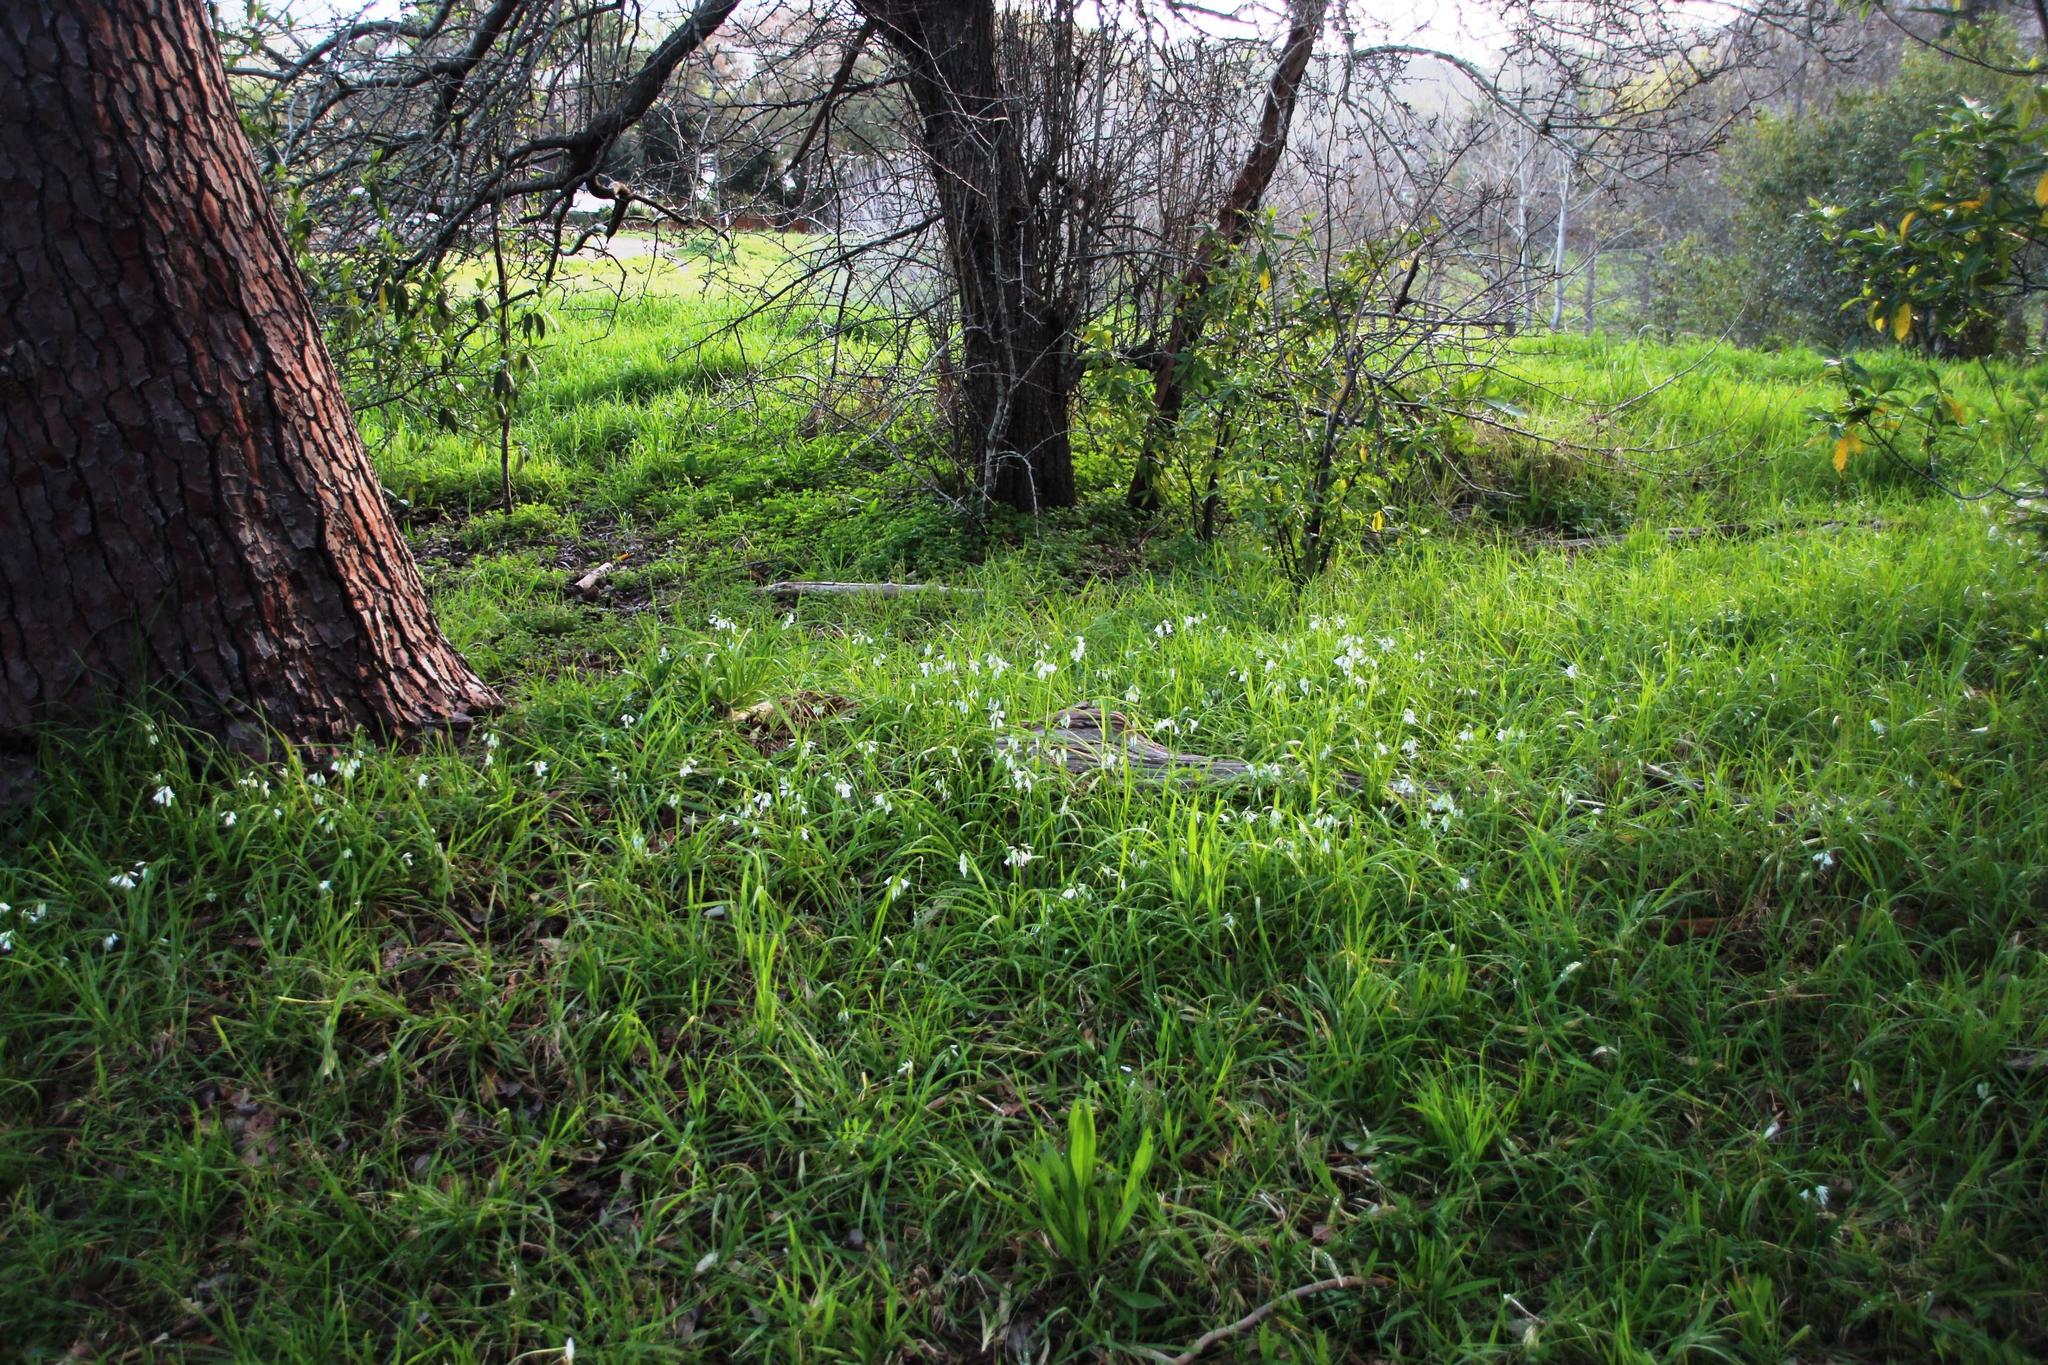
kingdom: Plantae
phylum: Tracheophyta
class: Liliopsida
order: Asparagales
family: Amaryllidaceae
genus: Allium
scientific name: Allium triquetrum
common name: Three-cornered garlic
